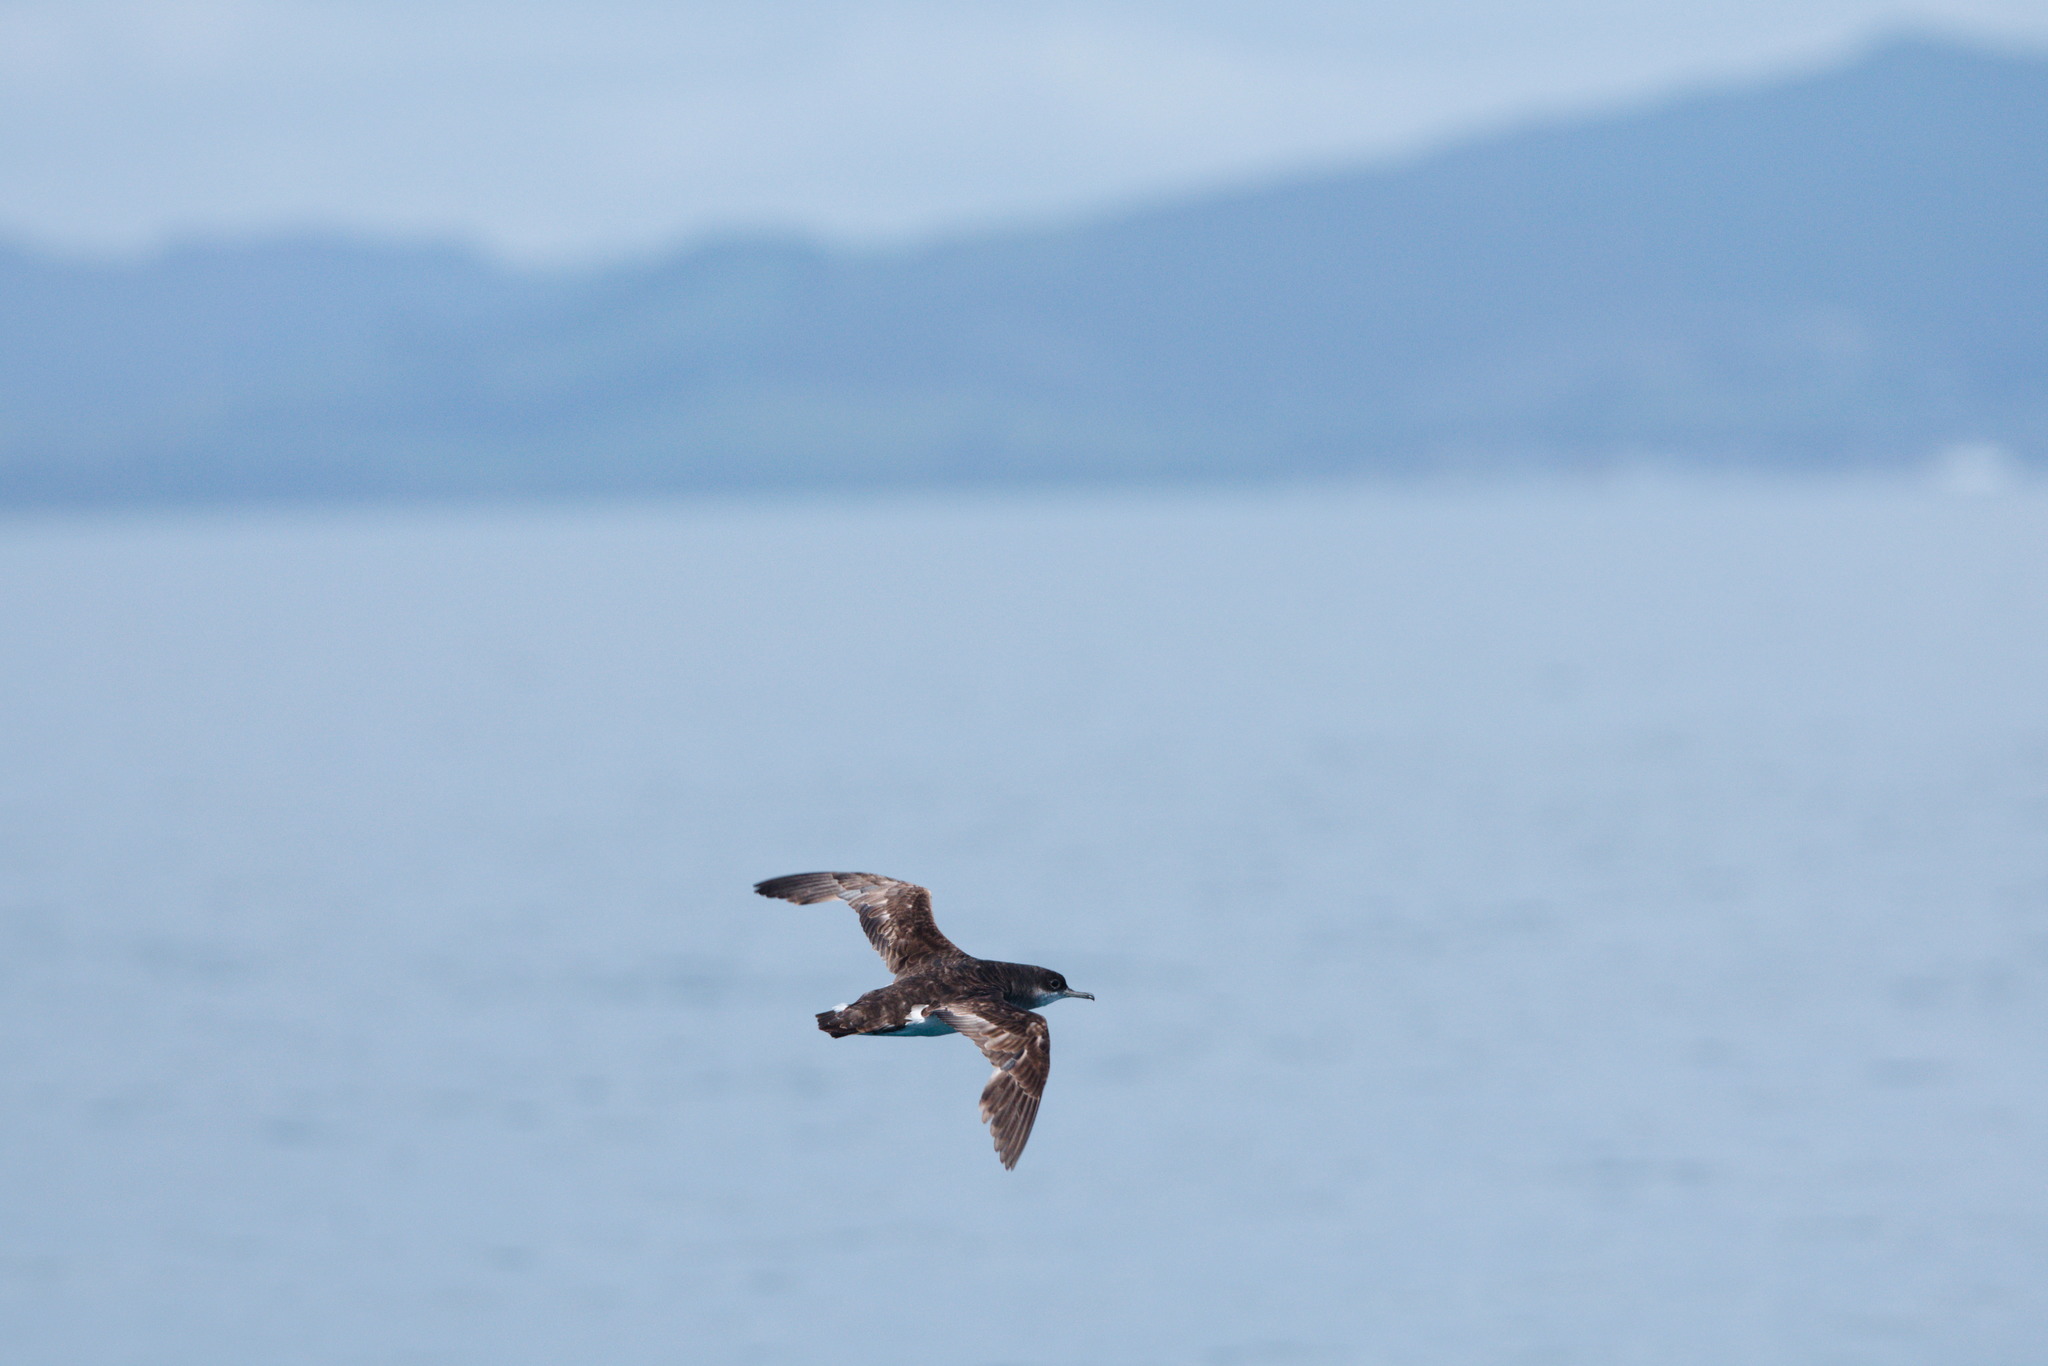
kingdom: Animalia
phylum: Chordata
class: Aves
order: Procellariiformes
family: Procellariidae
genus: Puffinus
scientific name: Puffinus gavia
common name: Fluttering shearwater
